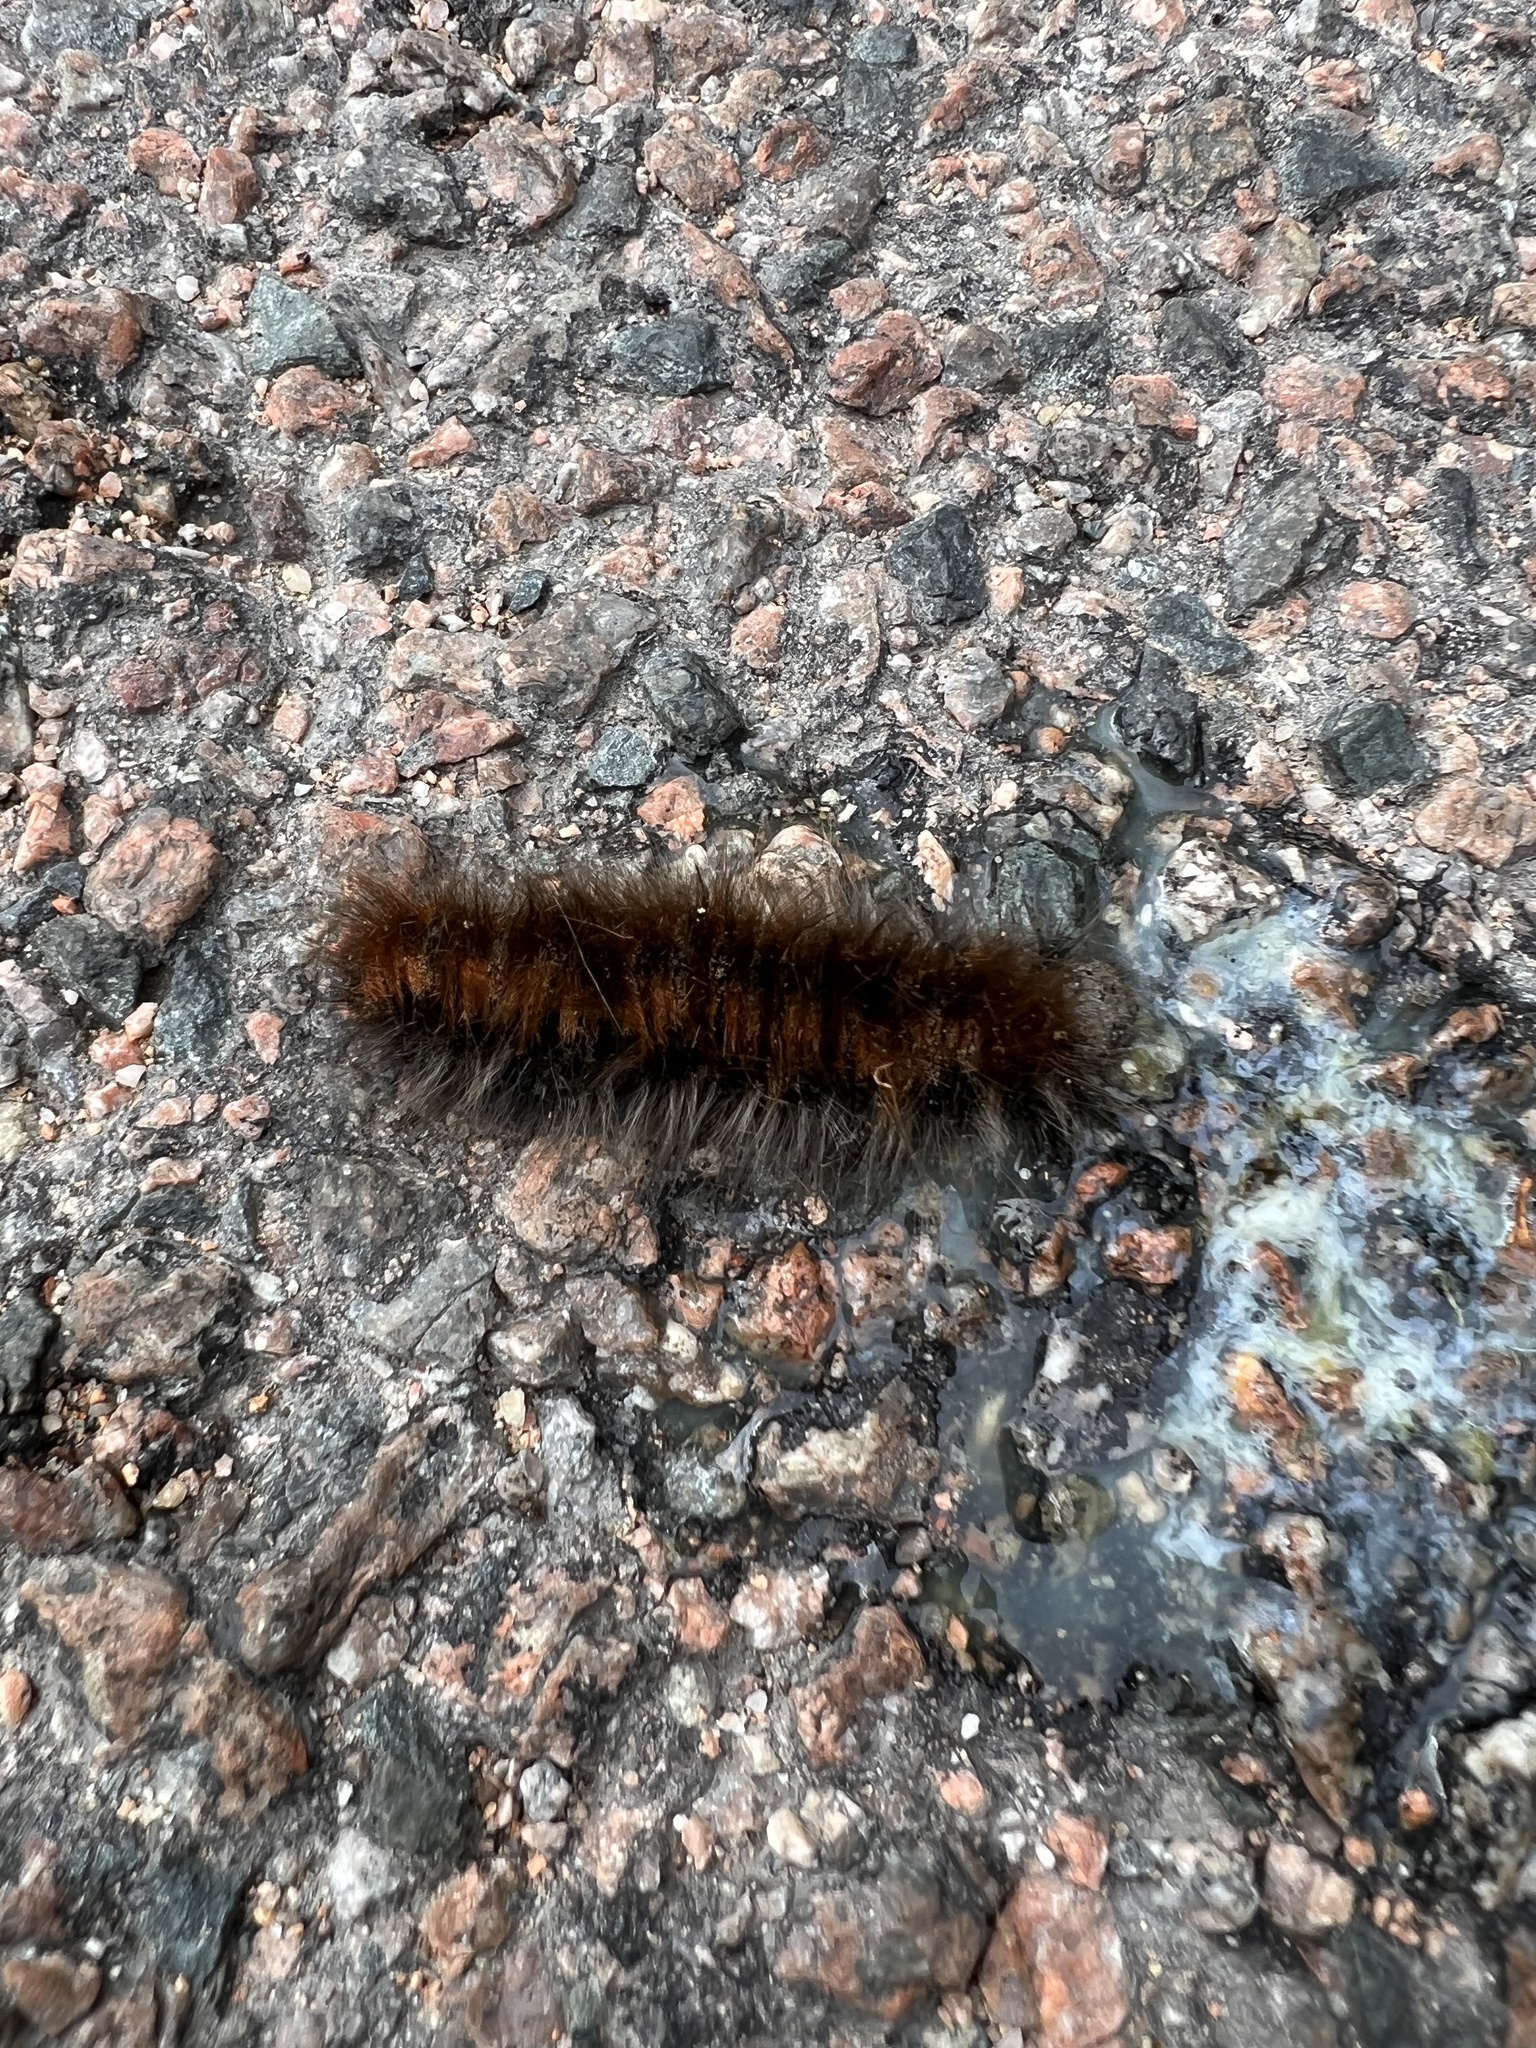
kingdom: Animalia
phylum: Arthropoda
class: Insecta
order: Lepidoptera
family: Lasiocampidae
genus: Macrothylacia
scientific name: Macrothylacia rubi
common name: Fox moth
